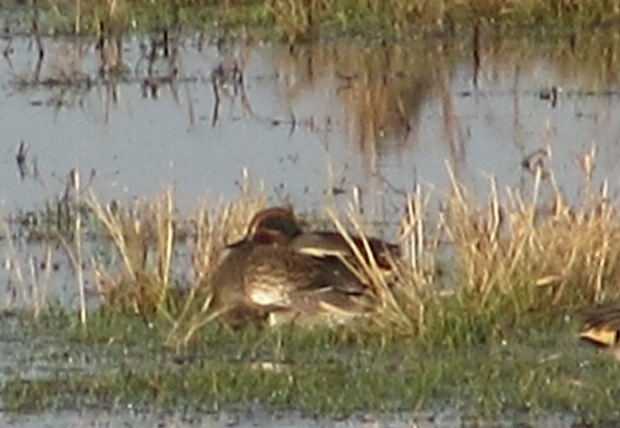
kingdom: Animalia
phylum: Chordata
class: Aves
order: Anseriformes
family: Anatidae
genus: Anas
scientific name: Anas crecca
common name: Eurasian teal
